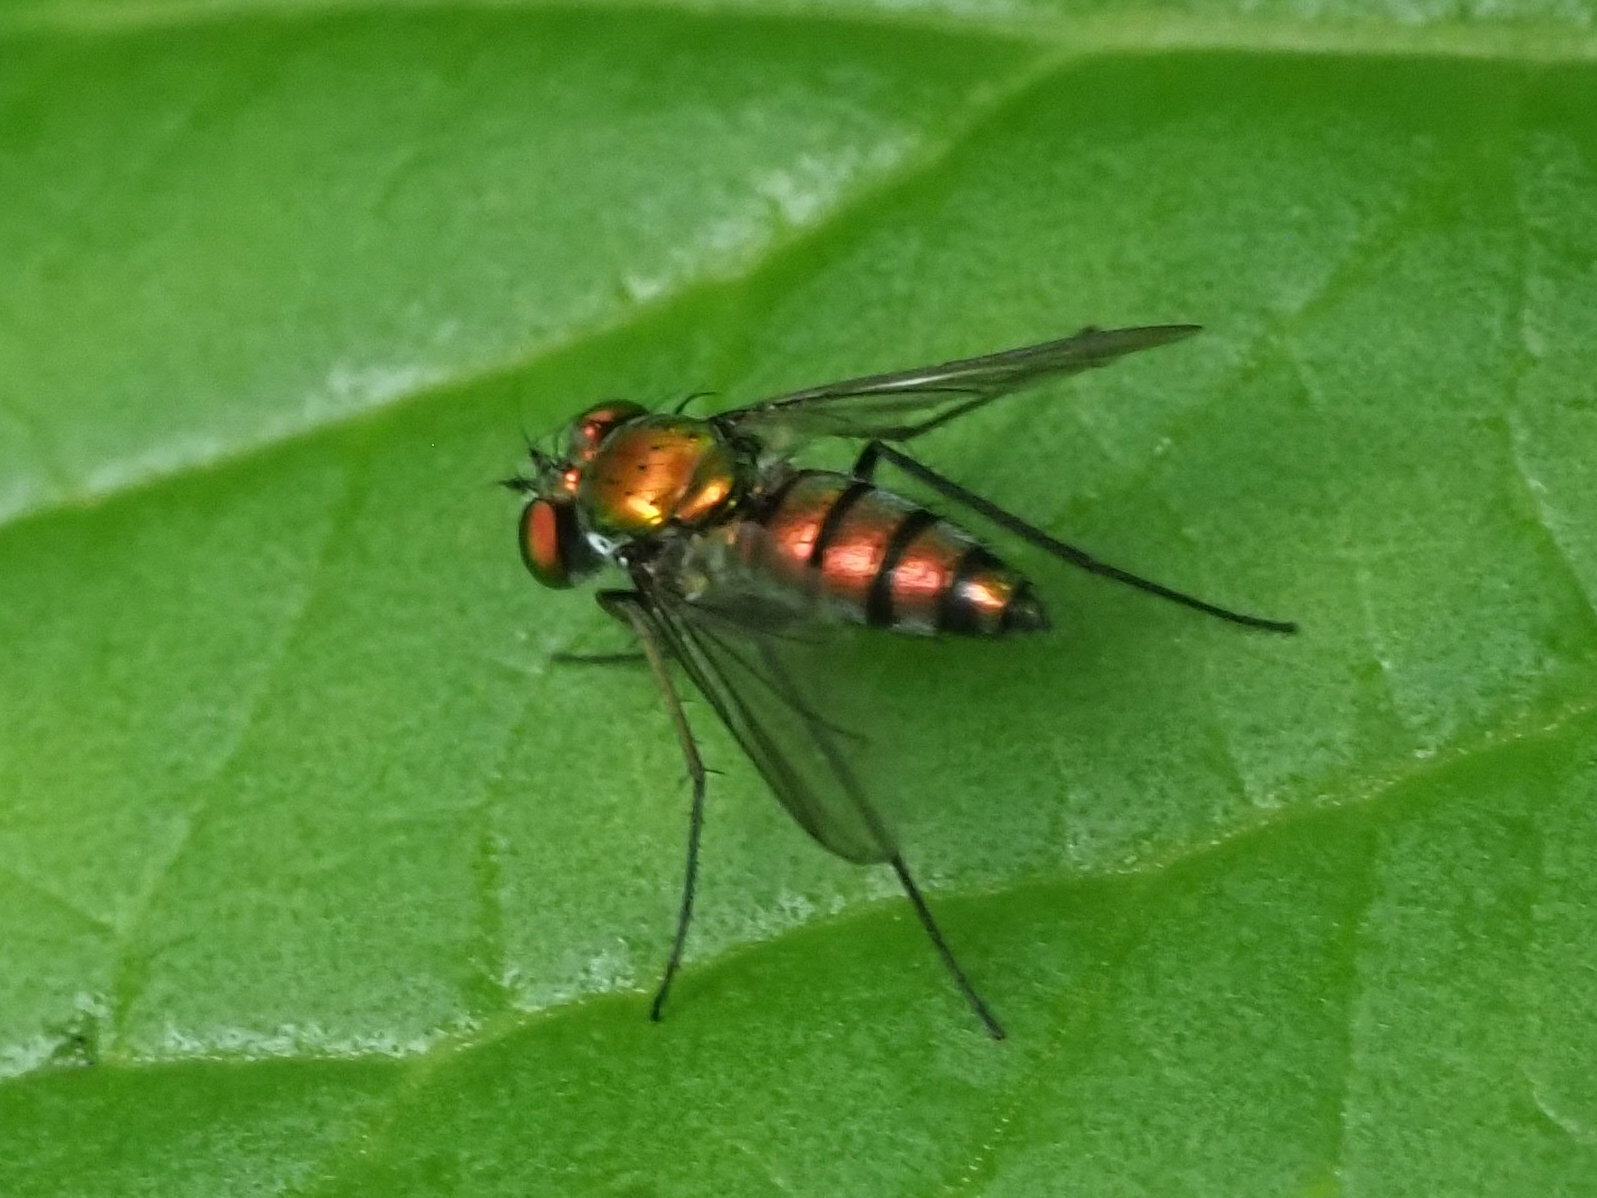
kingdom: Animalia
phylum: Arthropoda
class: Insecta
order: Diptera
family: Dolichopodidae
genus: Condylostylus
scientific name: Condylostylus longicornis
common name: Long-legged fly
